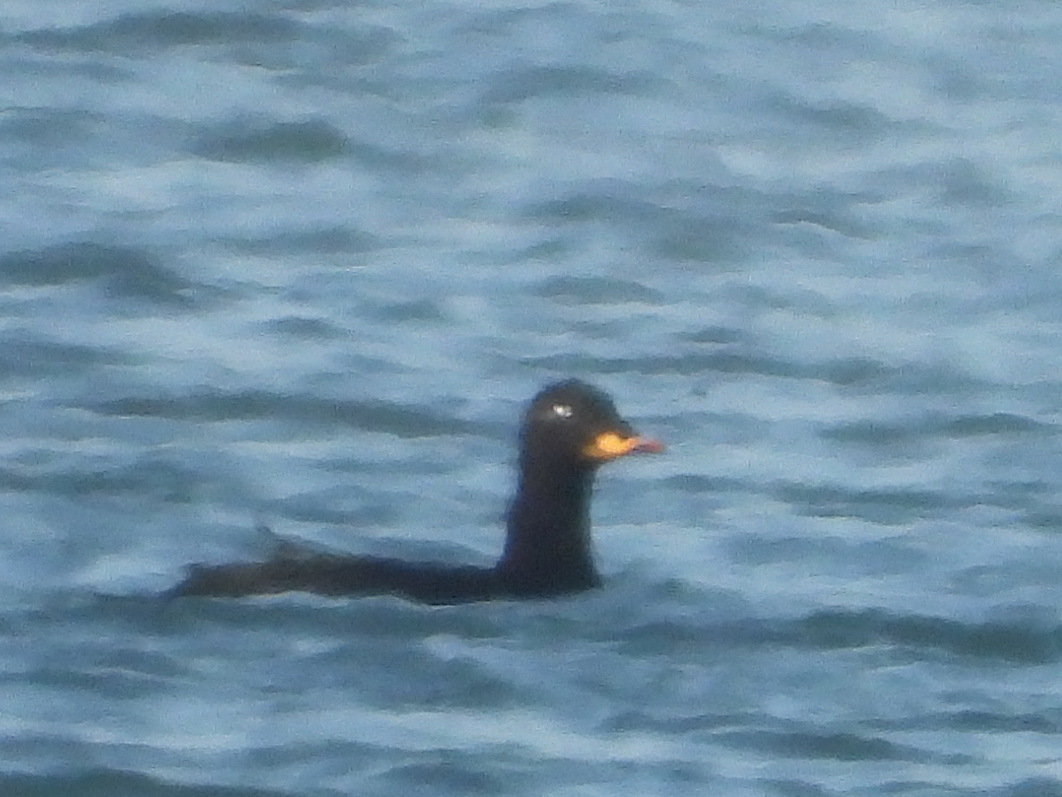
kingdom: Animalia
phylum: Chordata
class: Aves
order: Anseriformes
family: Anatidae
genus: Melanitta
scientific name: Melanitta fusca
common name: Velvet scoter
